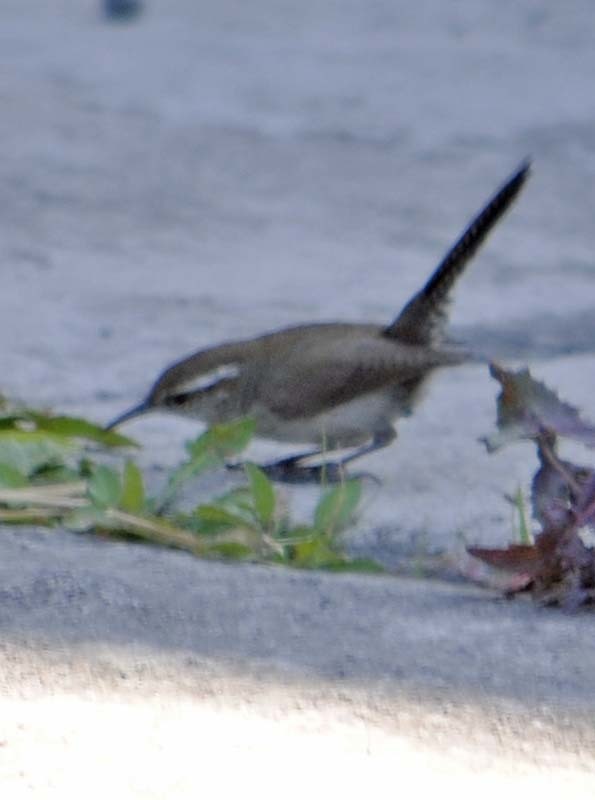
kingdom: Animalia
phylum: Chordata
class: Aves
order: Passeriformes
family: Troglodytidae
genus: Thryomanes
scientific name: Thryomanes bewickii
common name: Bewick's wren
